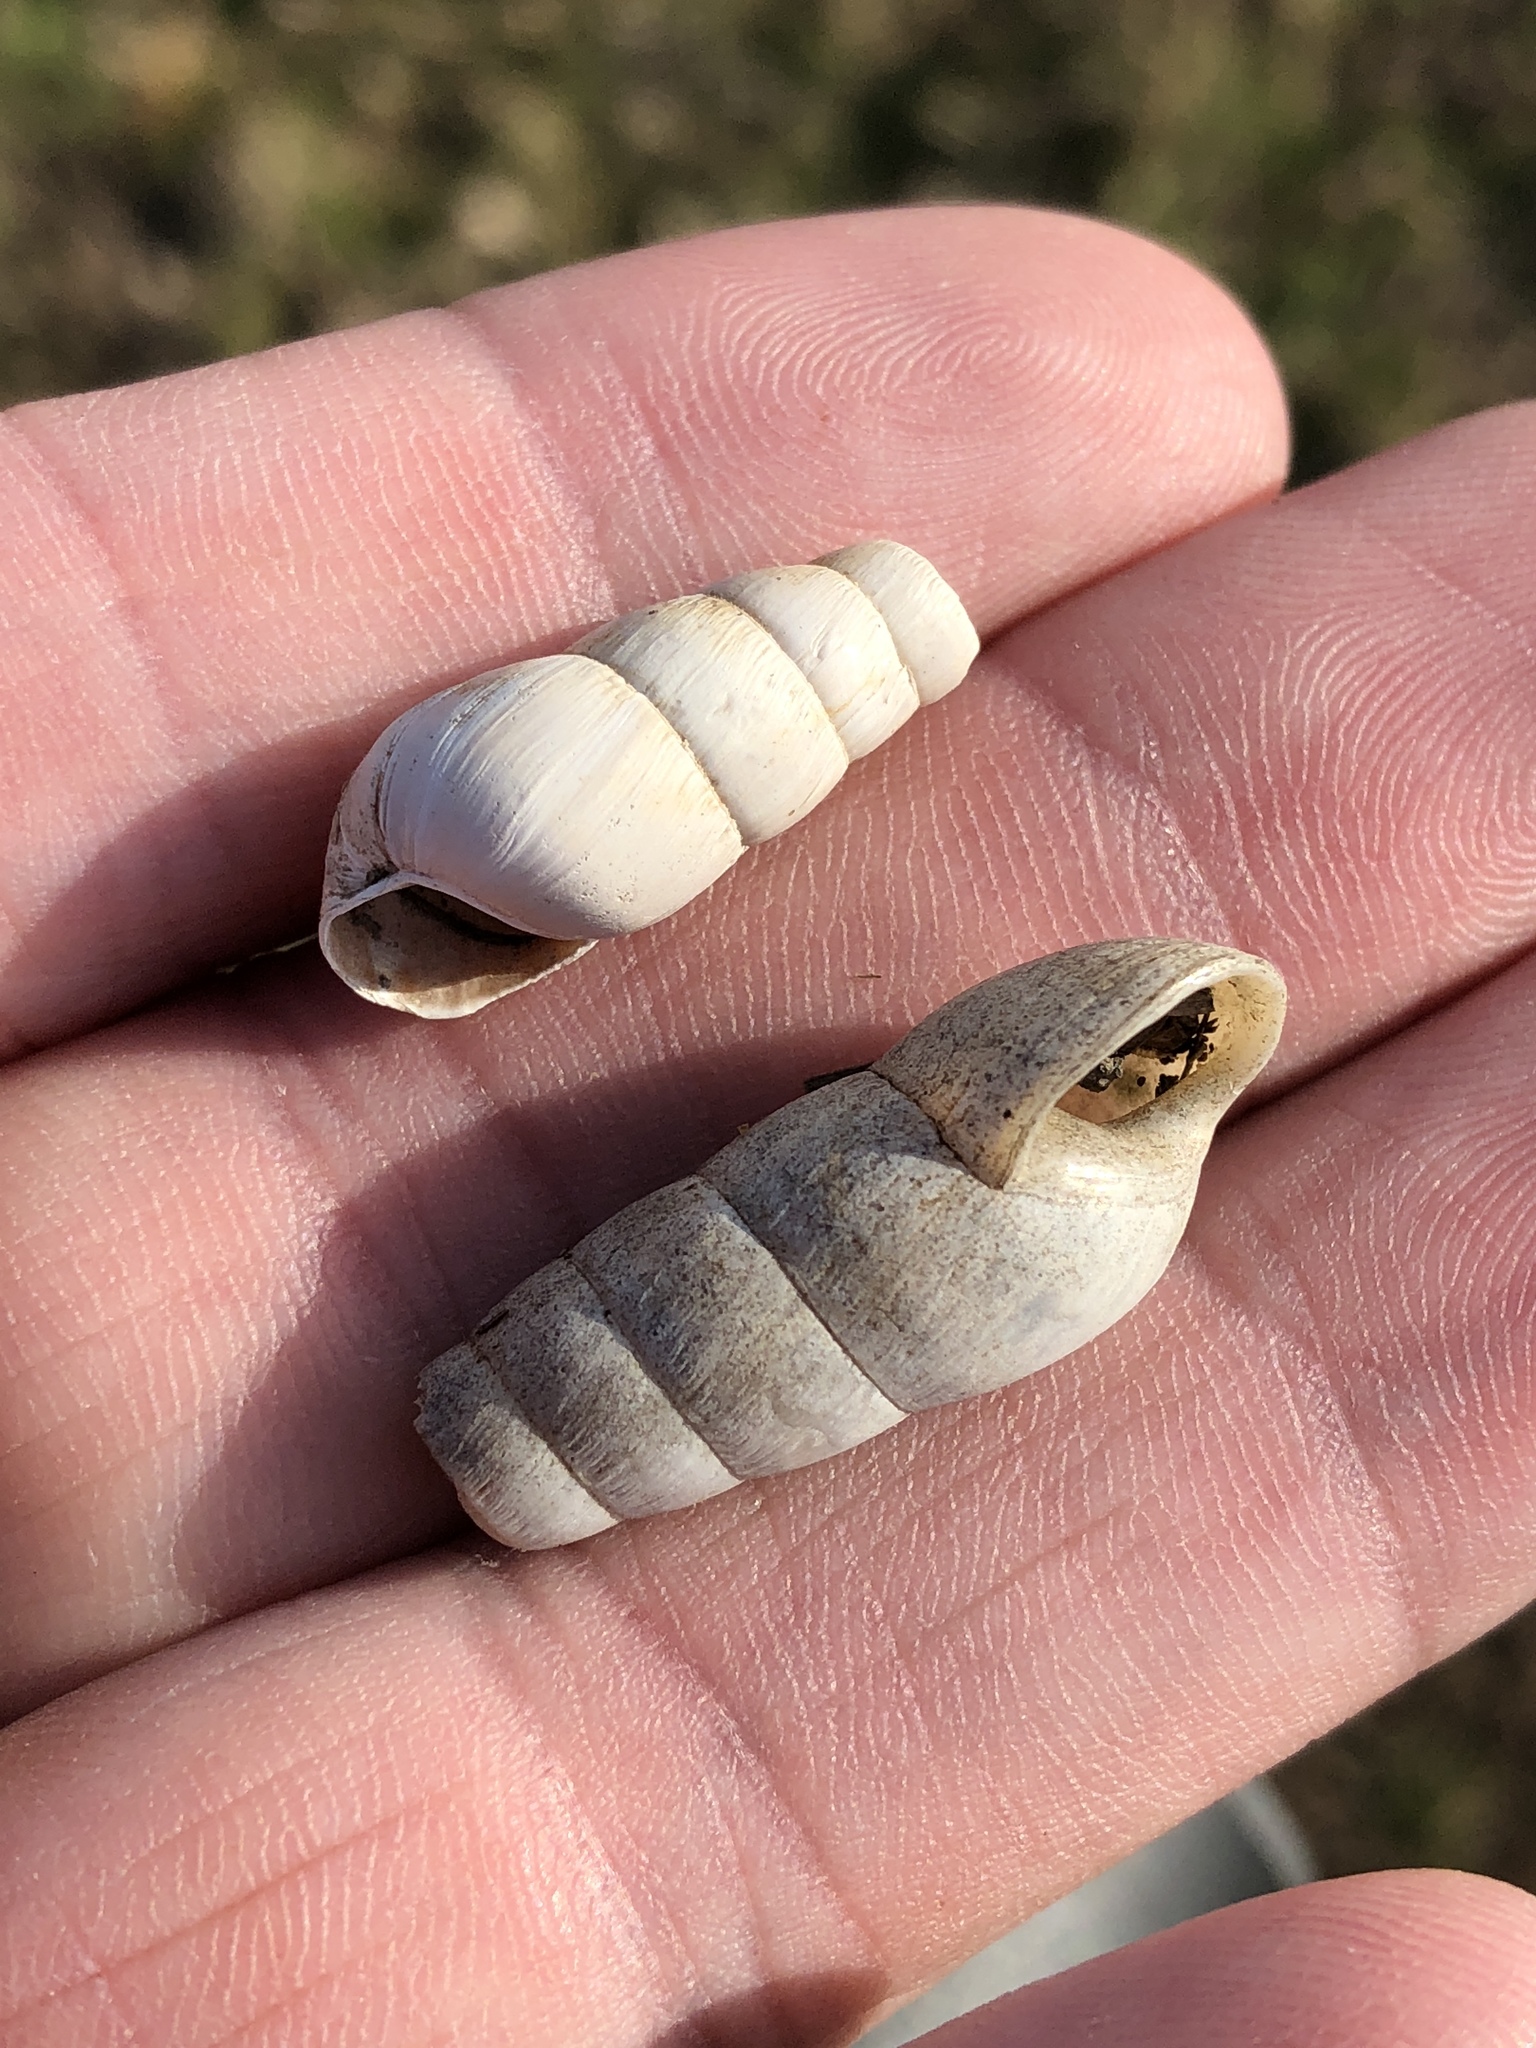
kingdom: Animalia
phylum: Mollusca
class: Gastropoda
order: Stylommatophora
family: Achatinidae
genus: Rumina
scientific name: Rumina decollata
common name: Decollate snail
